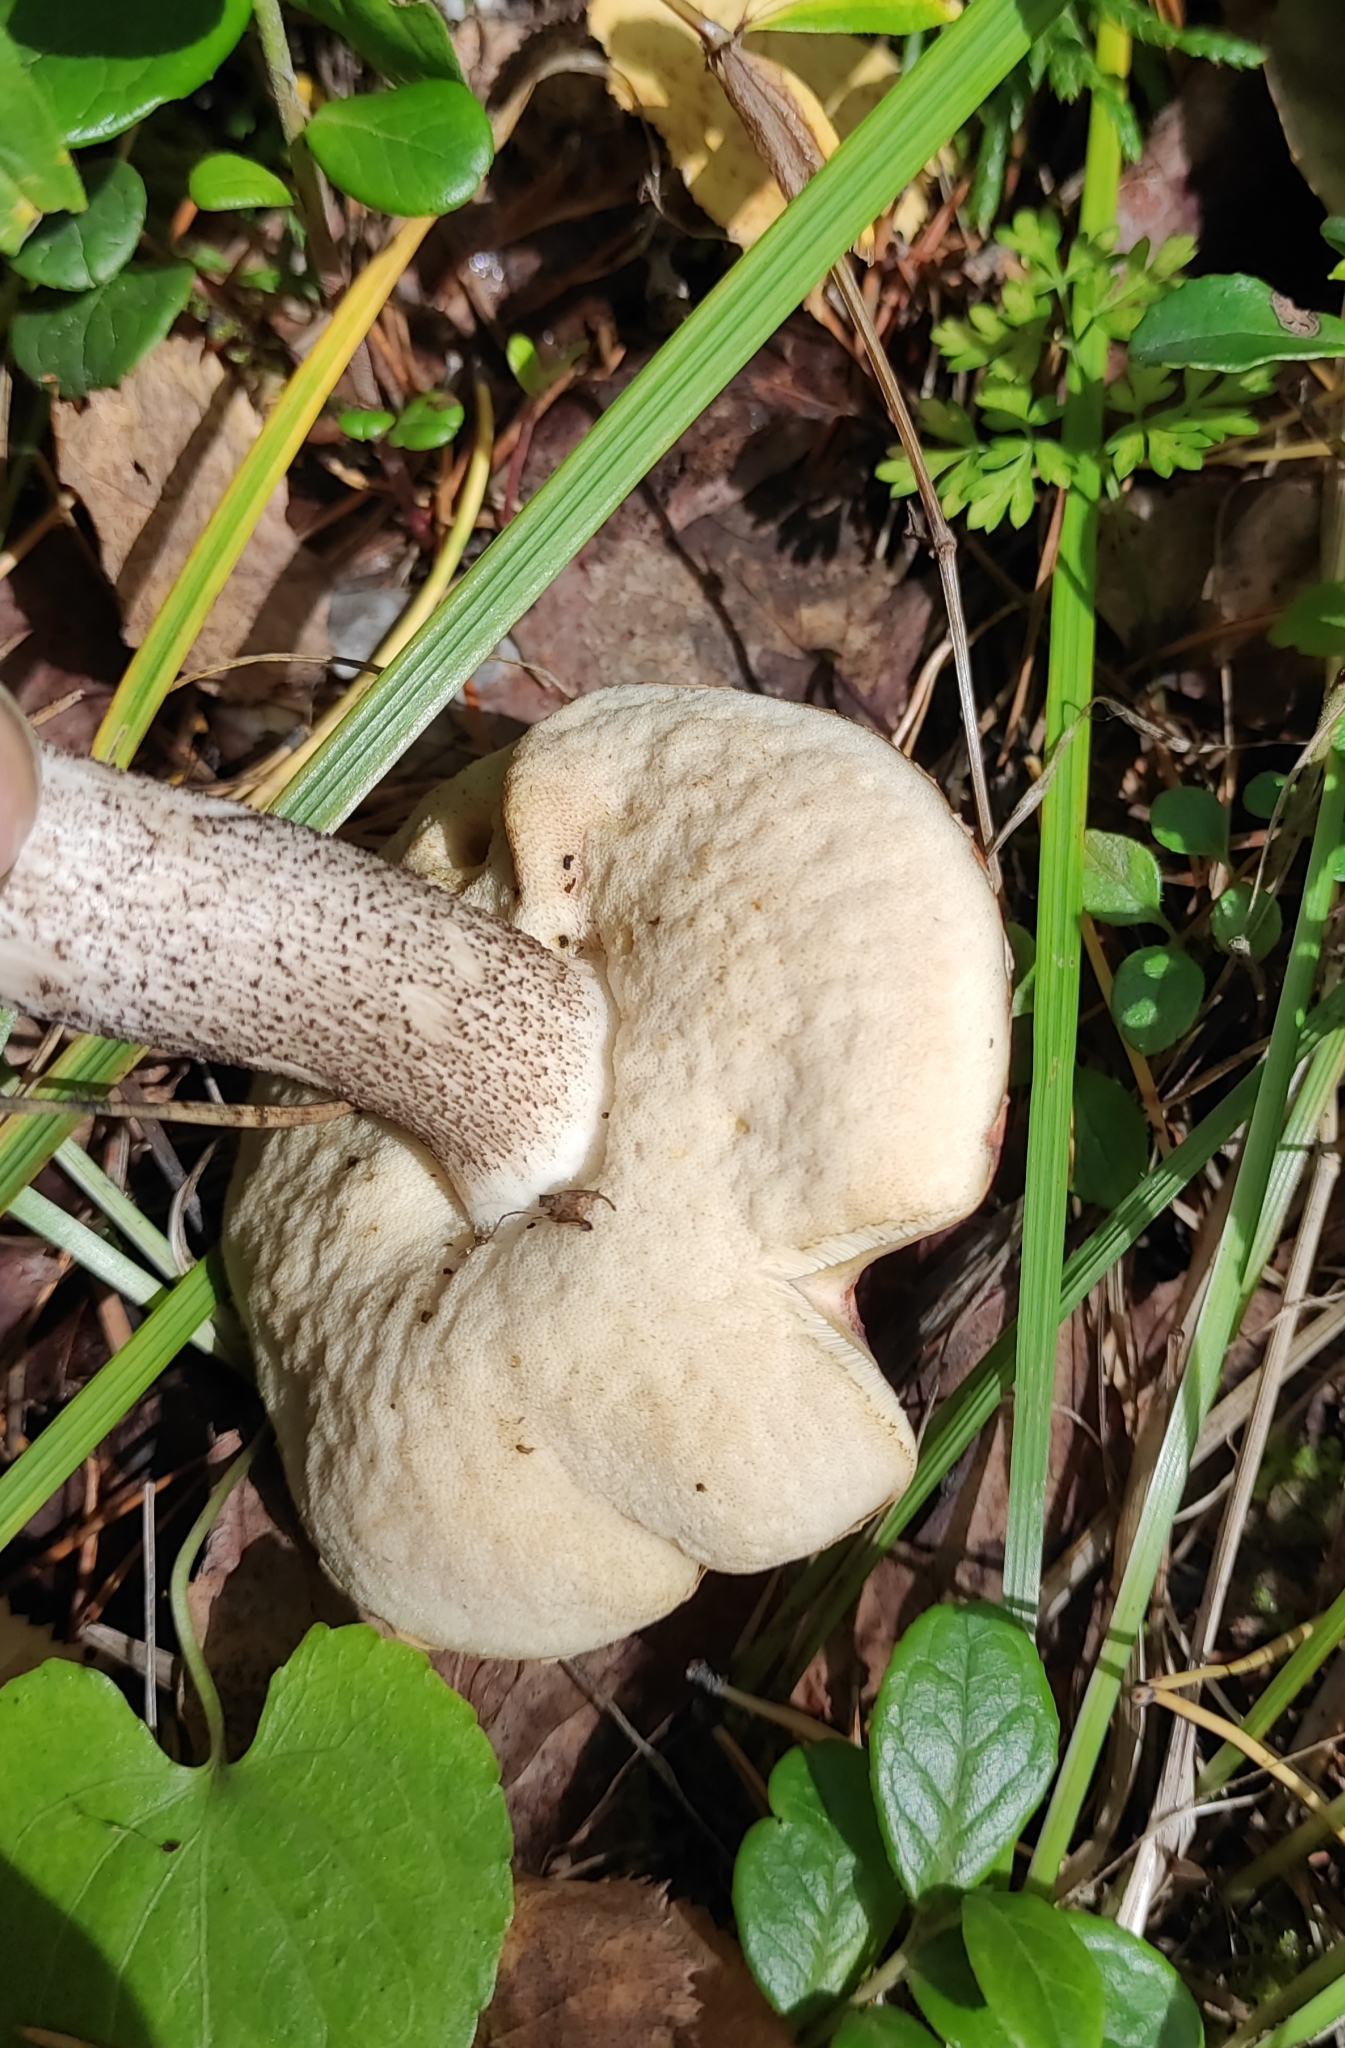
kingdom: Fungi
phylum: Basidiomycota
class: Agaricomycetes
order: Boletales
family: Boletaceae
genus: Leccinum
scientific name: Leccinum vulpinum
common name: Foxy bolete
